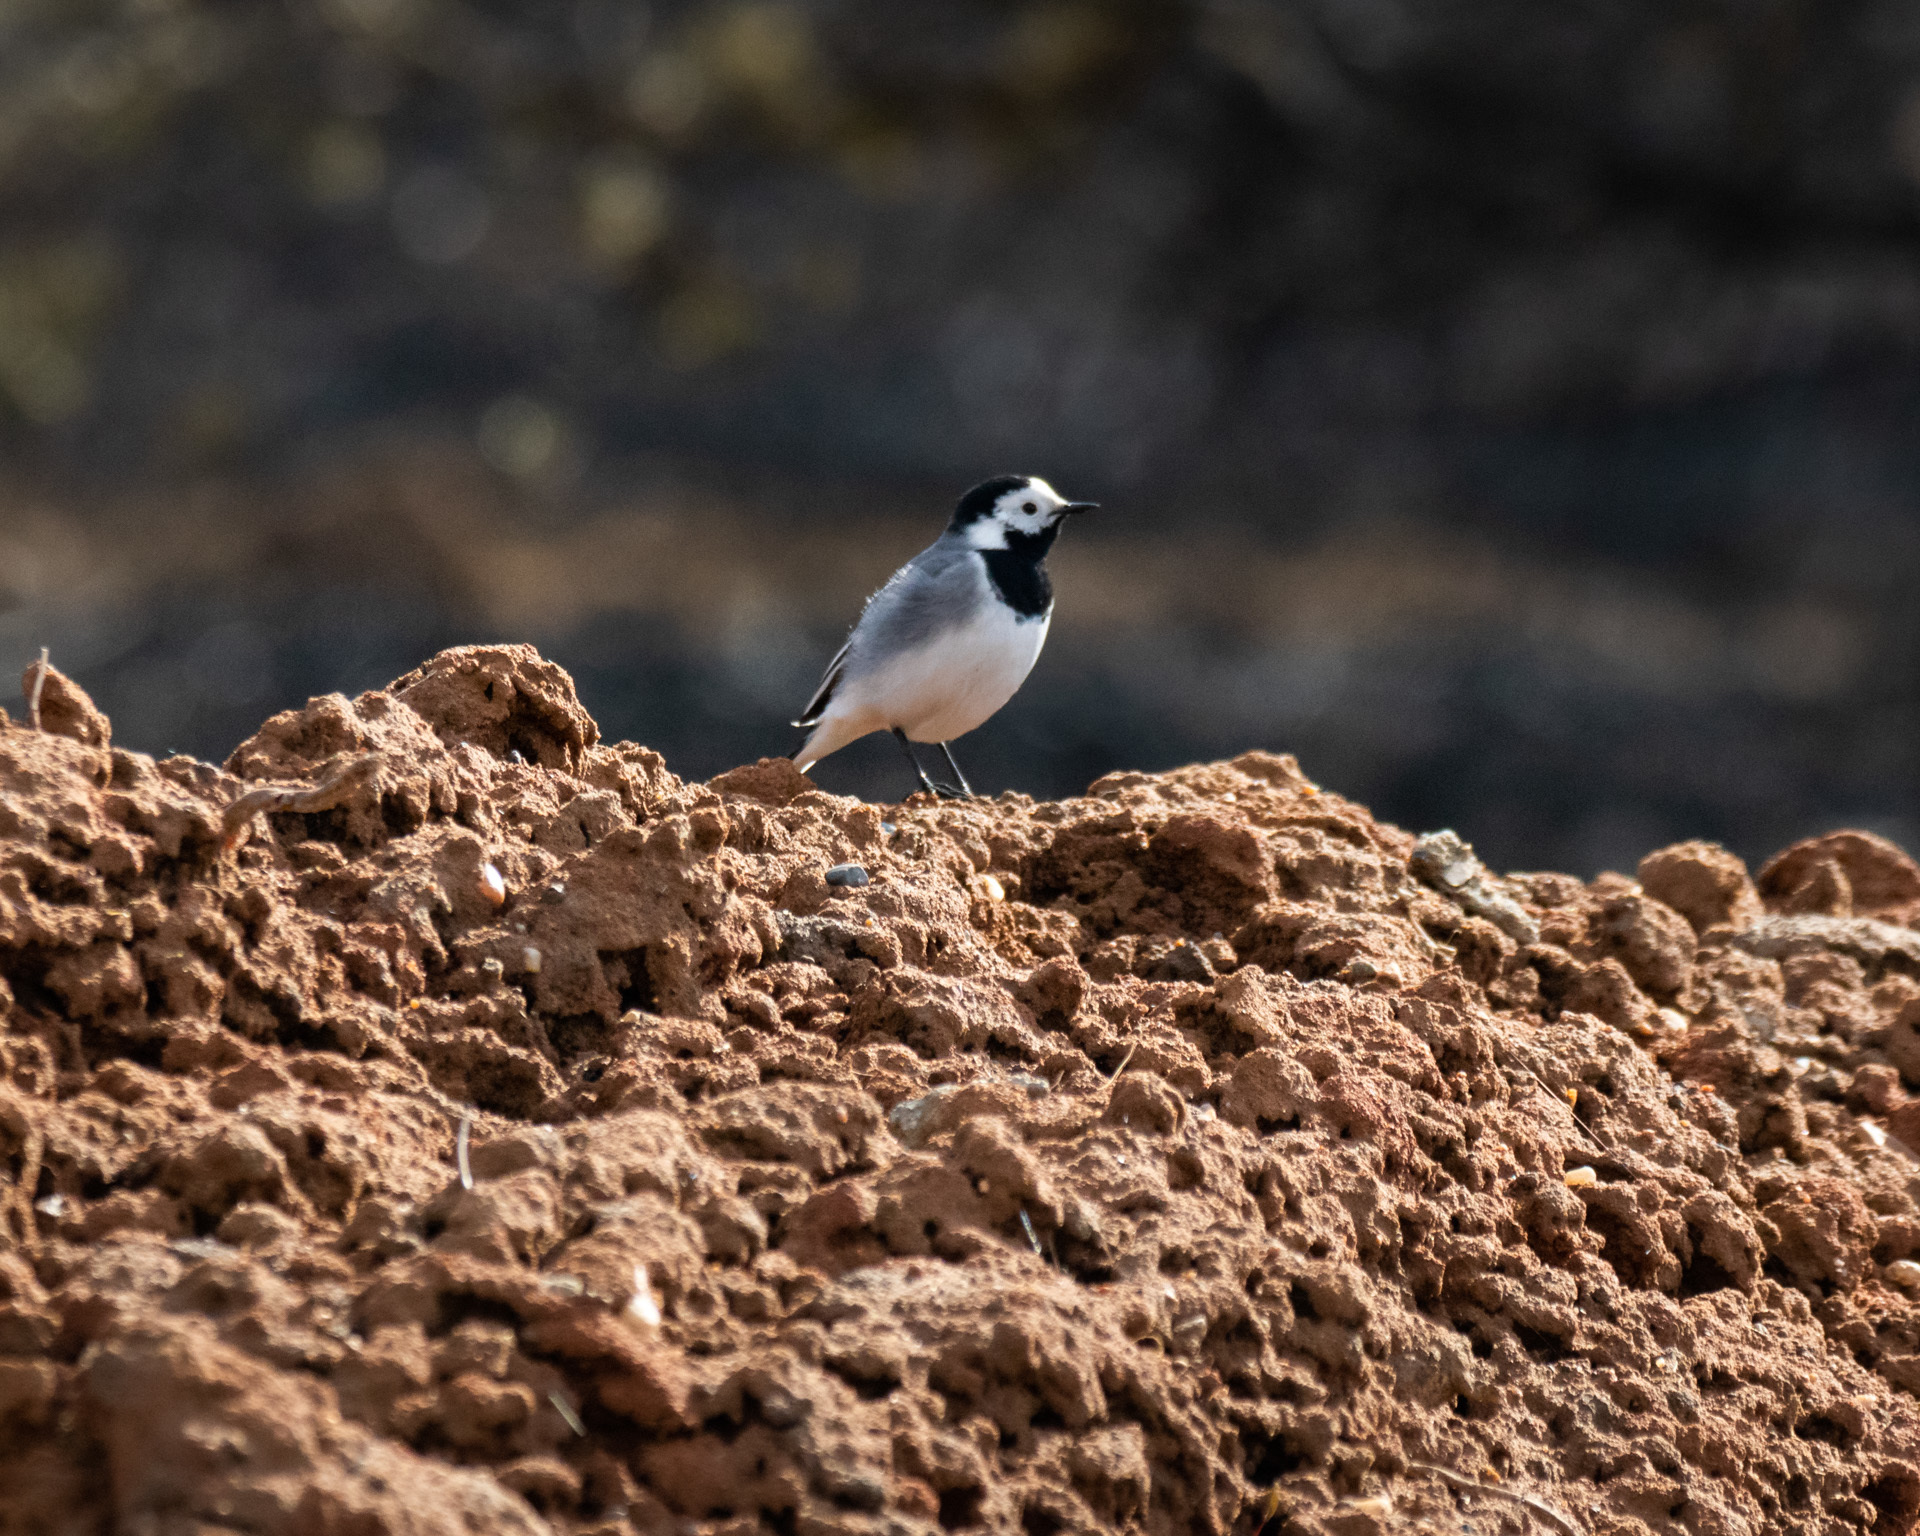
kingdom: Animalia
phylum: Chordata
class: Aves
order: Passeriformes
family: Motacillidae
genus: Motacilla
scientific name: Motacilla alba
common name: White wagtail
